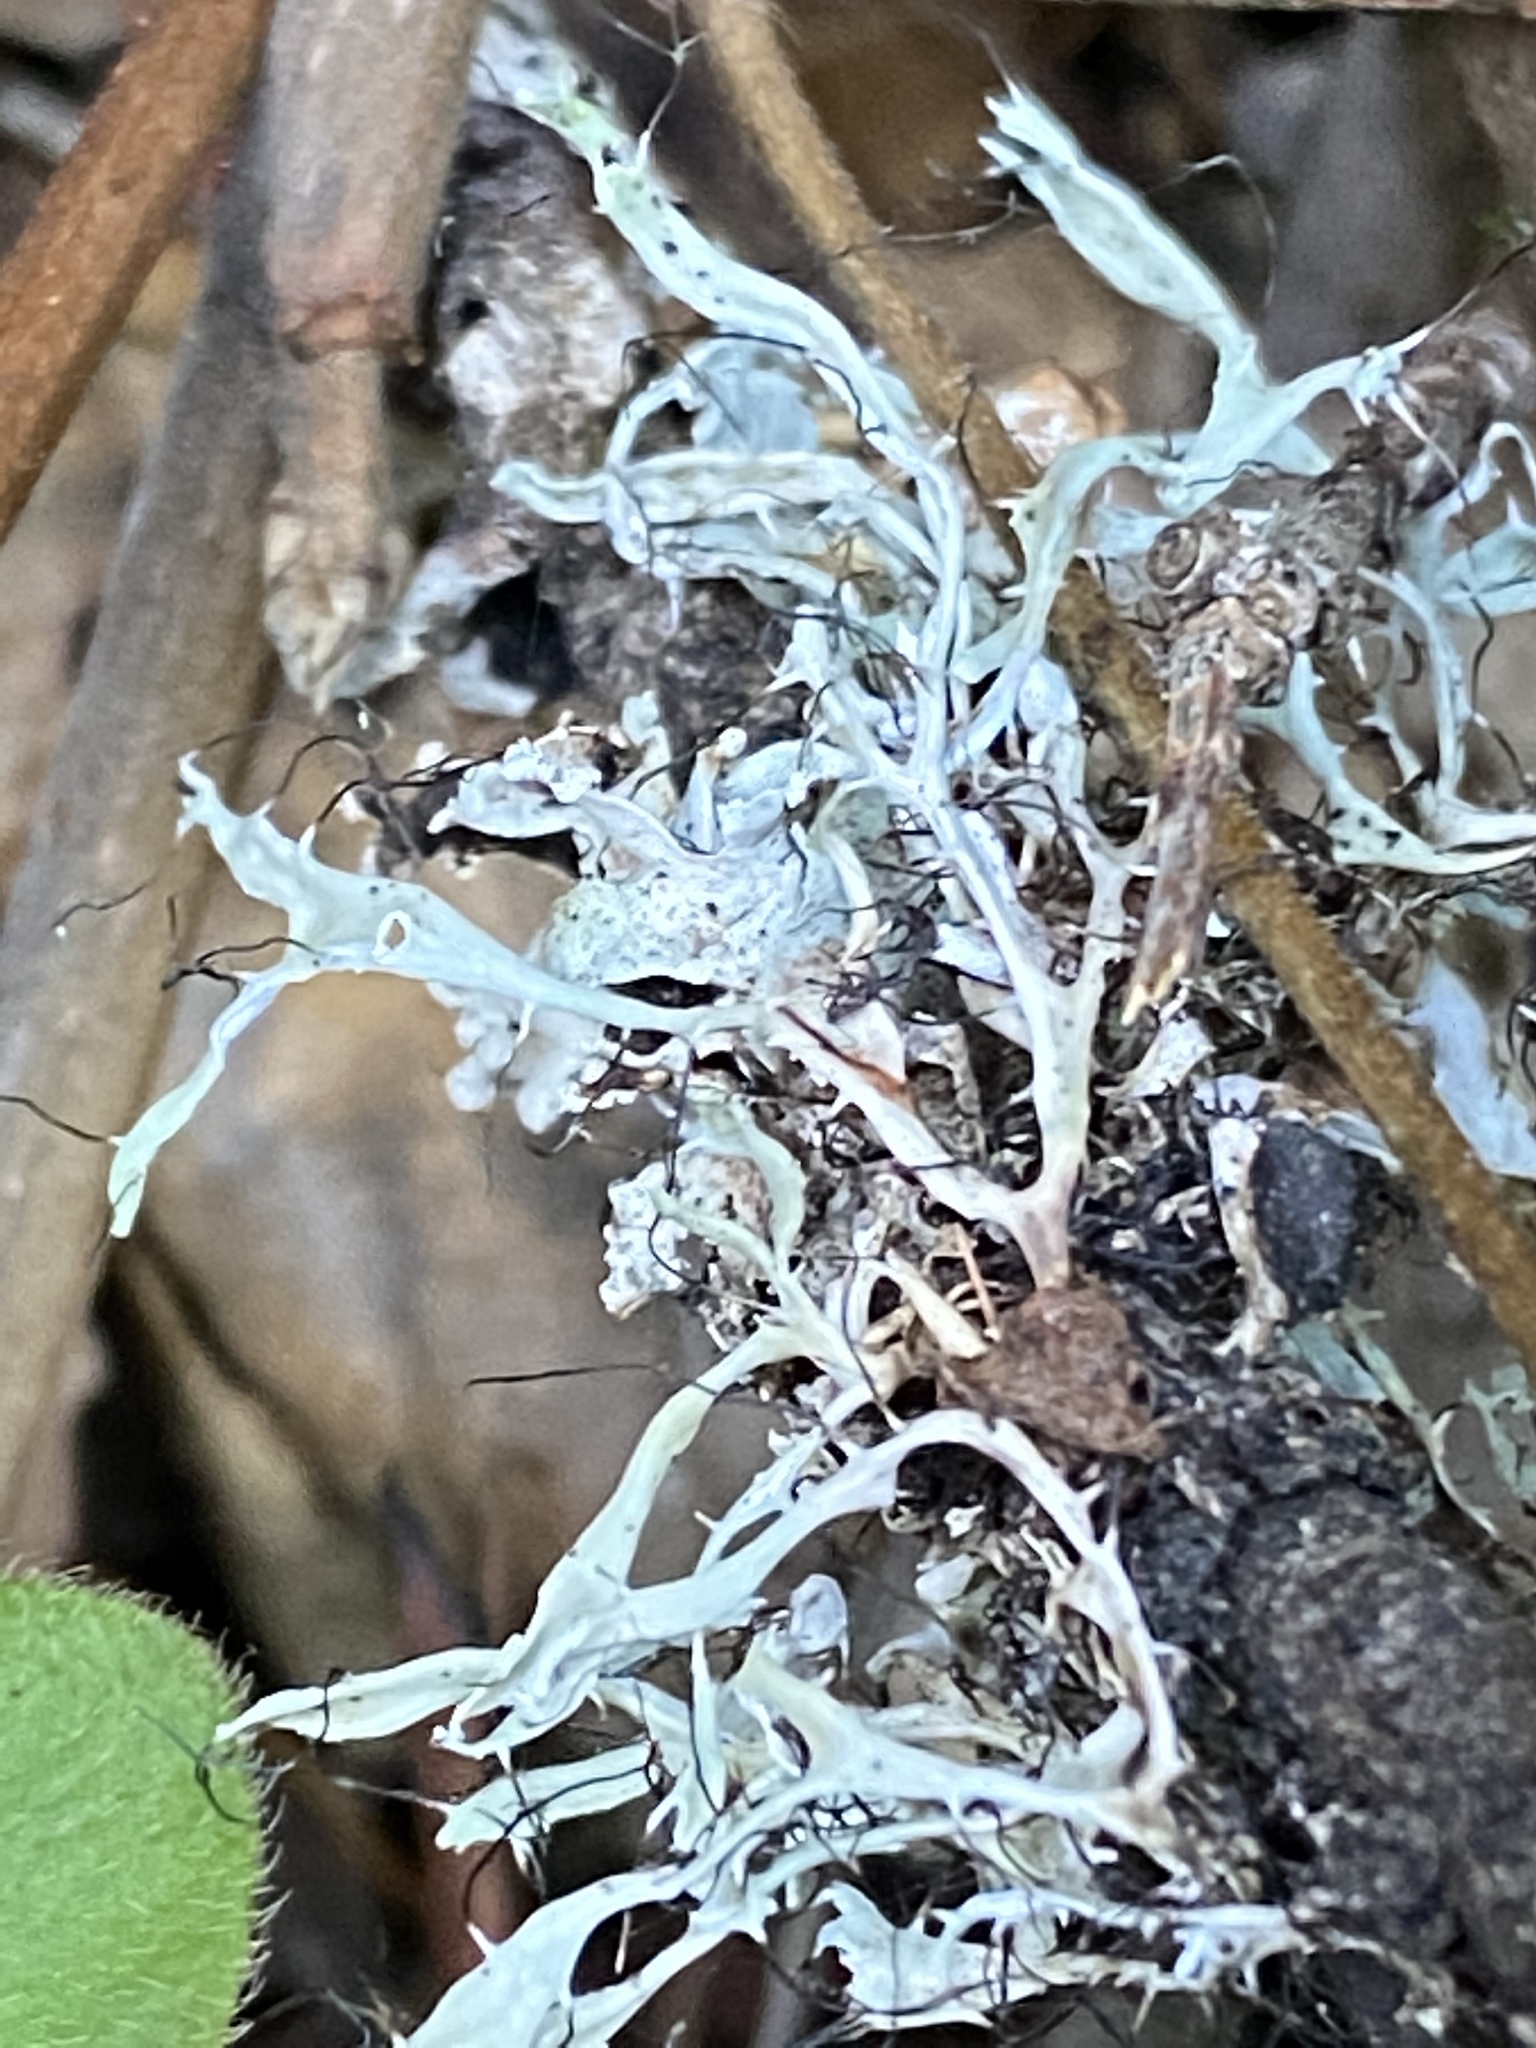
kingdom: Fungi
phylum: Ascomycota
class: Lecanoromycetes
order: Caliciales
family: Physciaceae
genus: Leucodermia
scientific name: Leucodermia leucomelos
